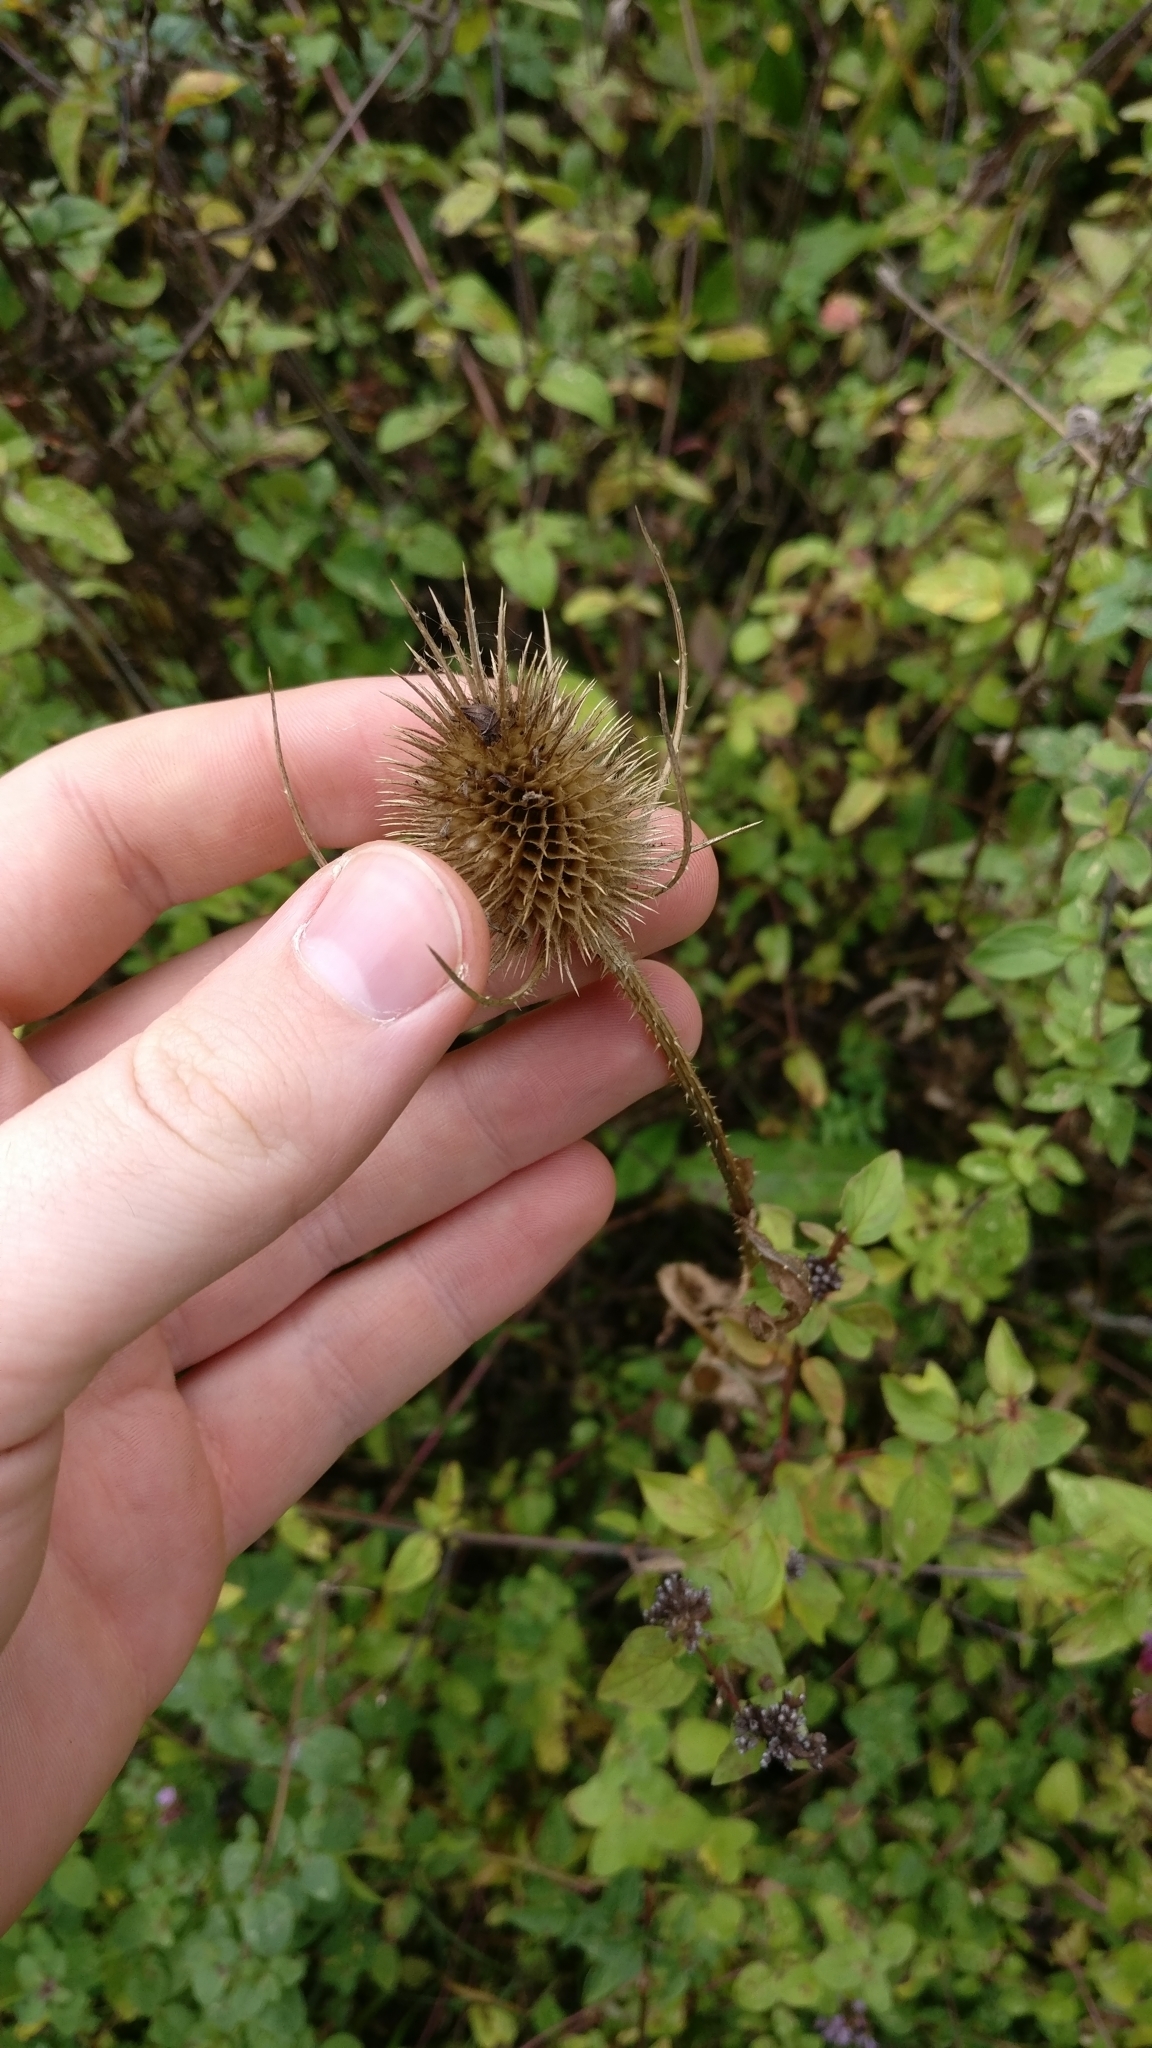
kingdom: Plantae
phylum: Tracheophyta
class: Magnoliopsida
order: Dipsacales
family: Caprifoliaceae
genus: Dipsacus
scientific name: Dipsacus fullonum
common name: Teasel
